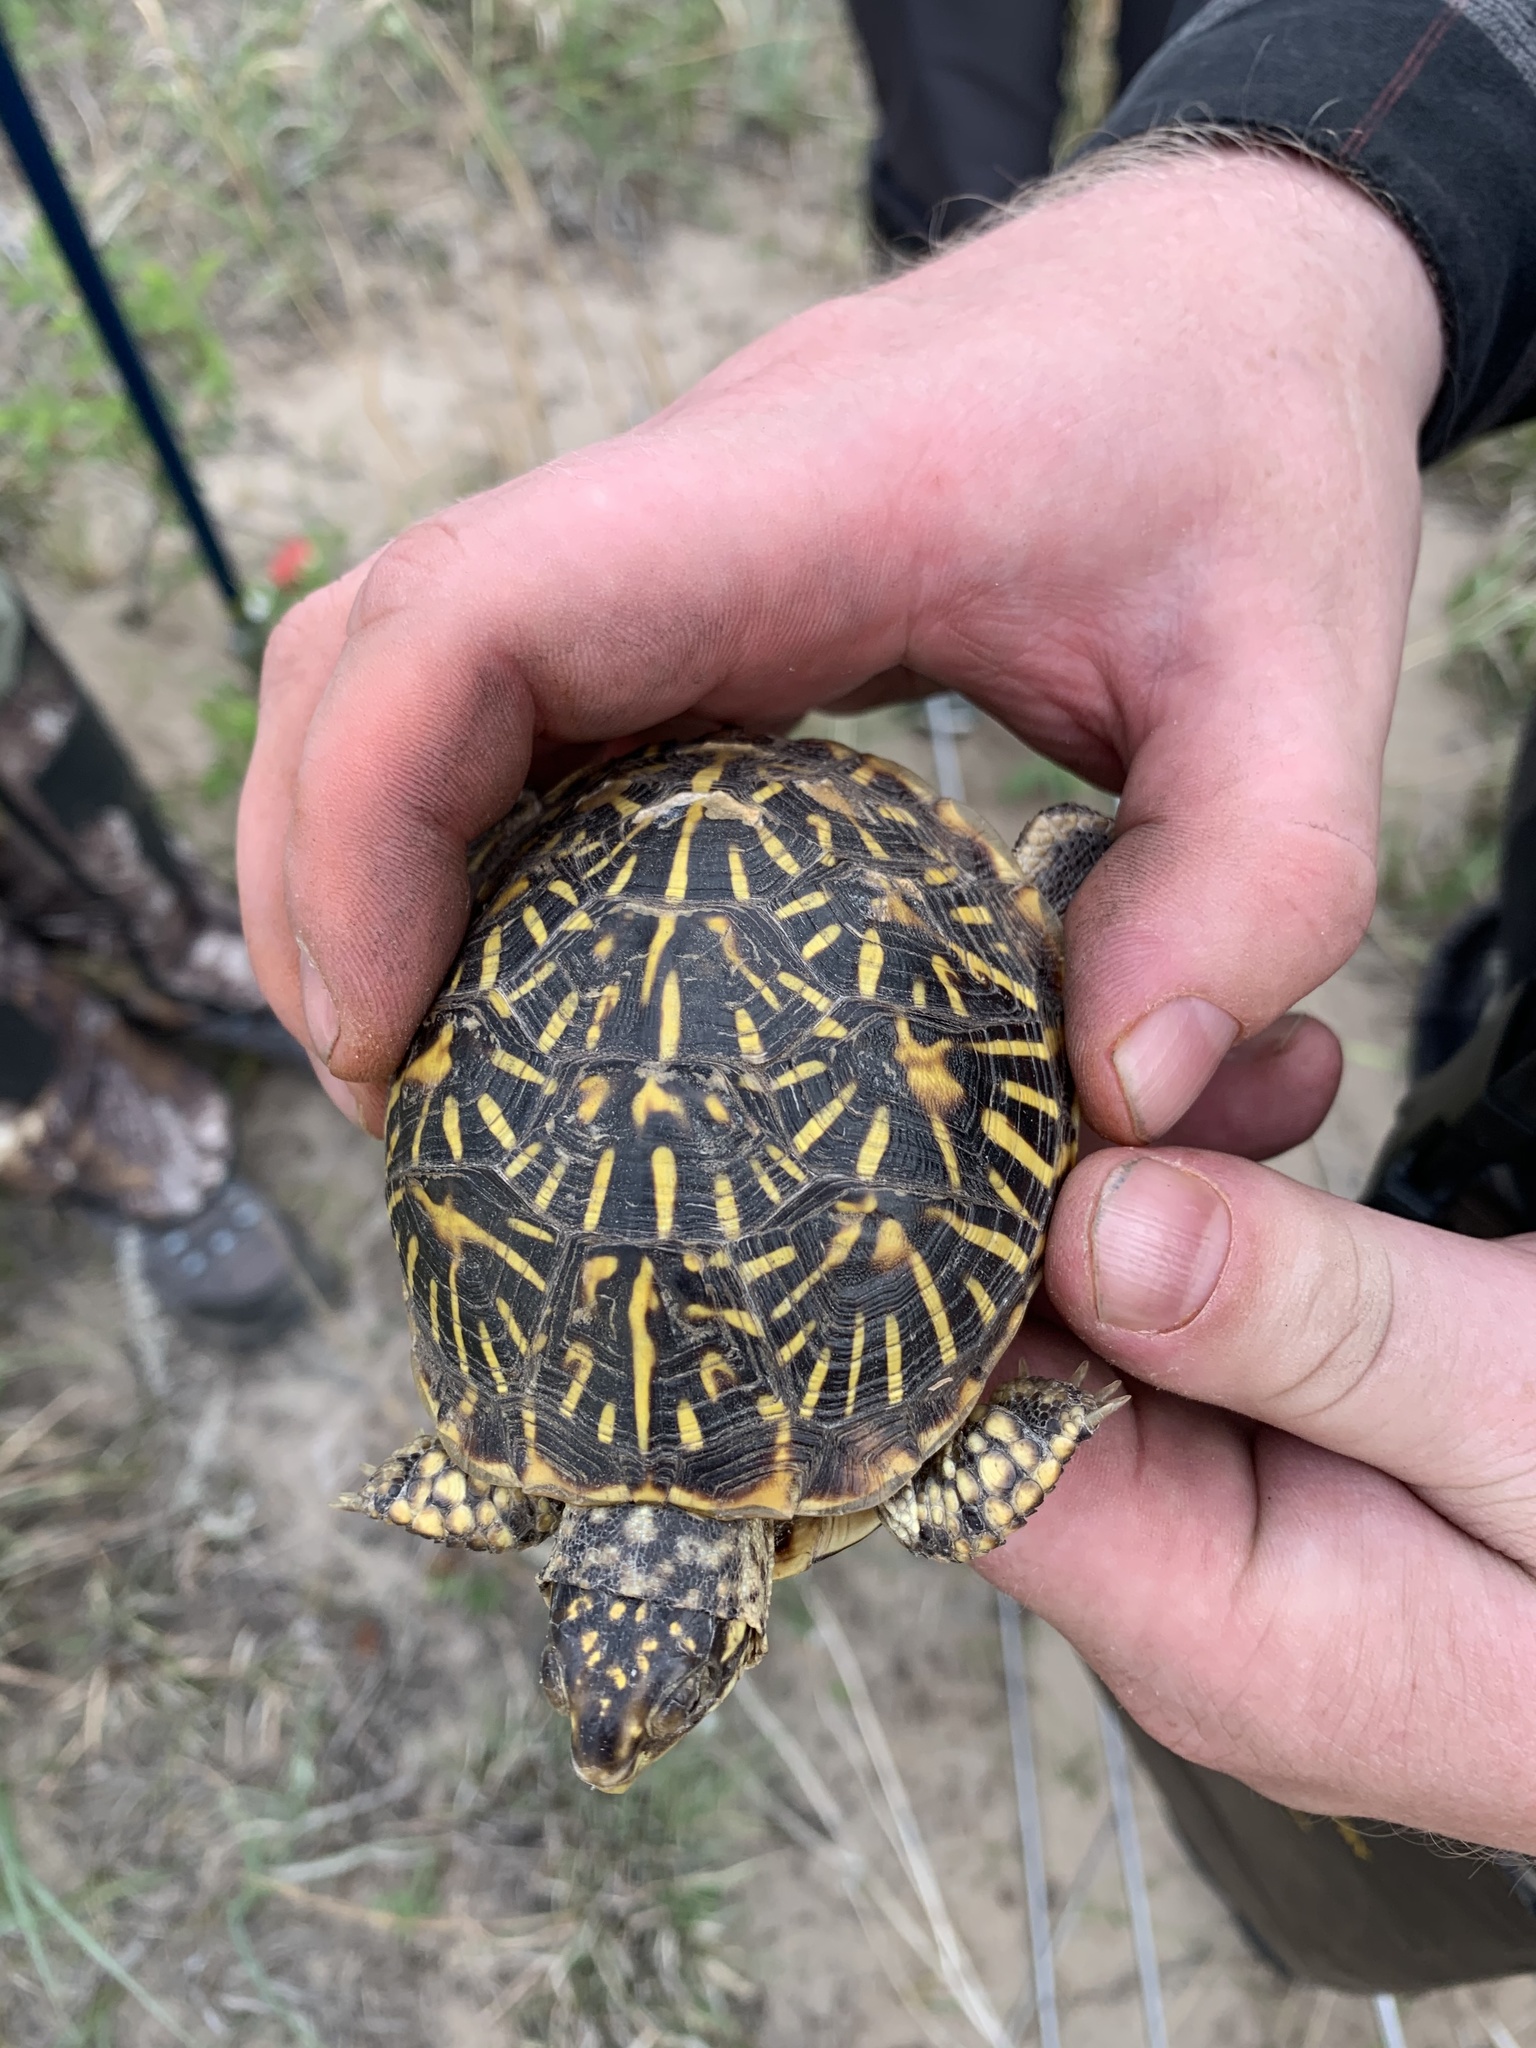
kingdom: Animalia
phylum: Chordata
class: Testudines
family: Emydidae
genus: Terrapene
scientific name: Terrapene ornata
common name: Western box turtle
